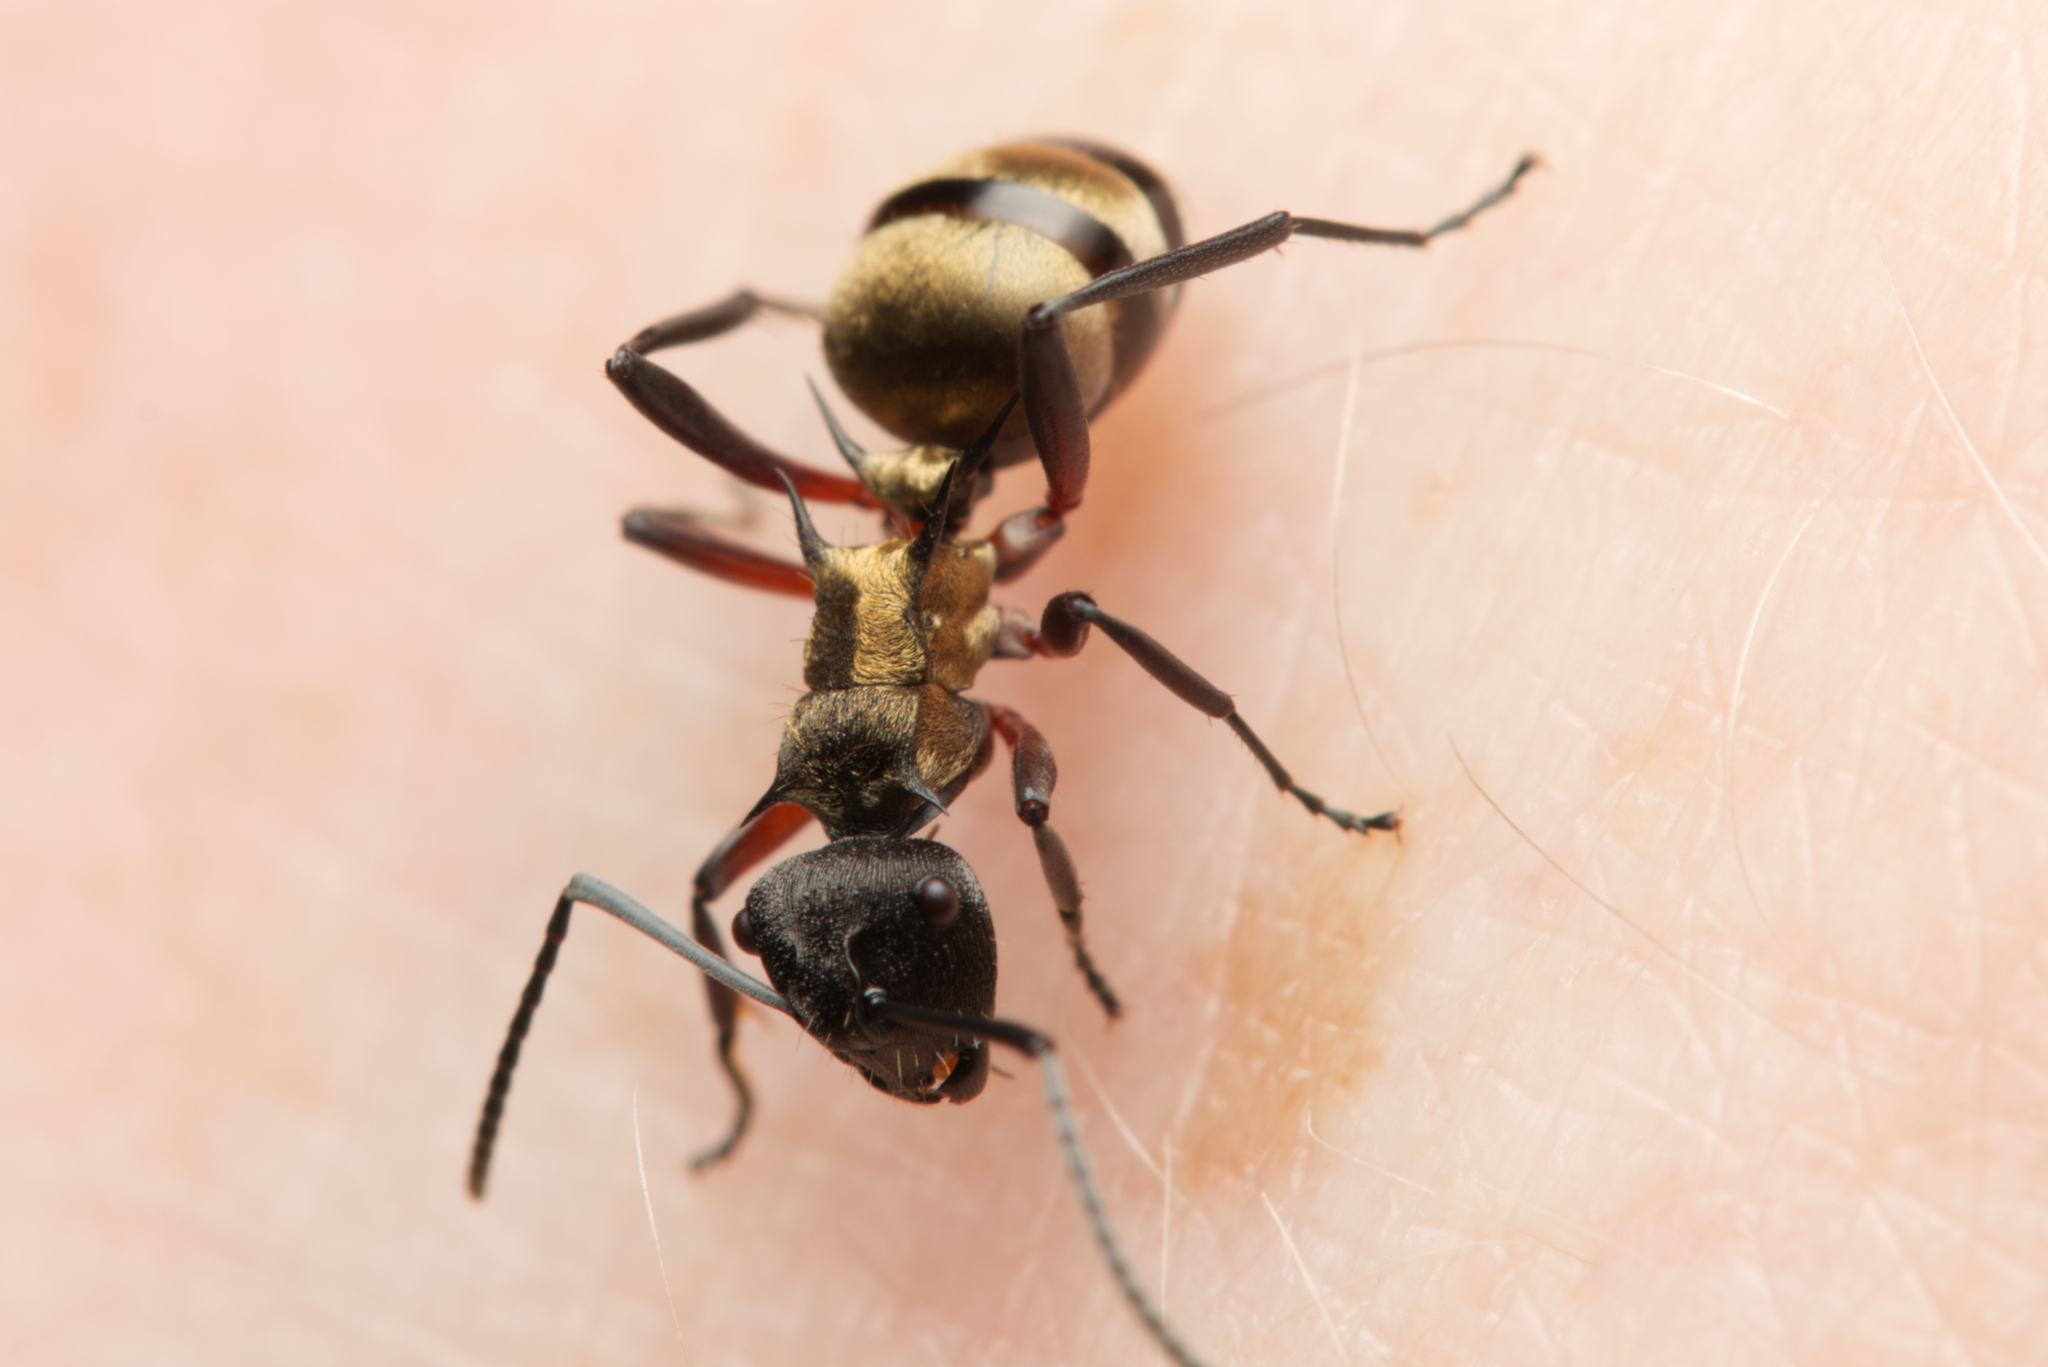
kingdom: Animalia
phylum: Arthropoda
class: Insecta
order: Hymenoptera
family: Formicidae
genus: Polyrhachis
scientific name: Polyrhachis rufifemur
